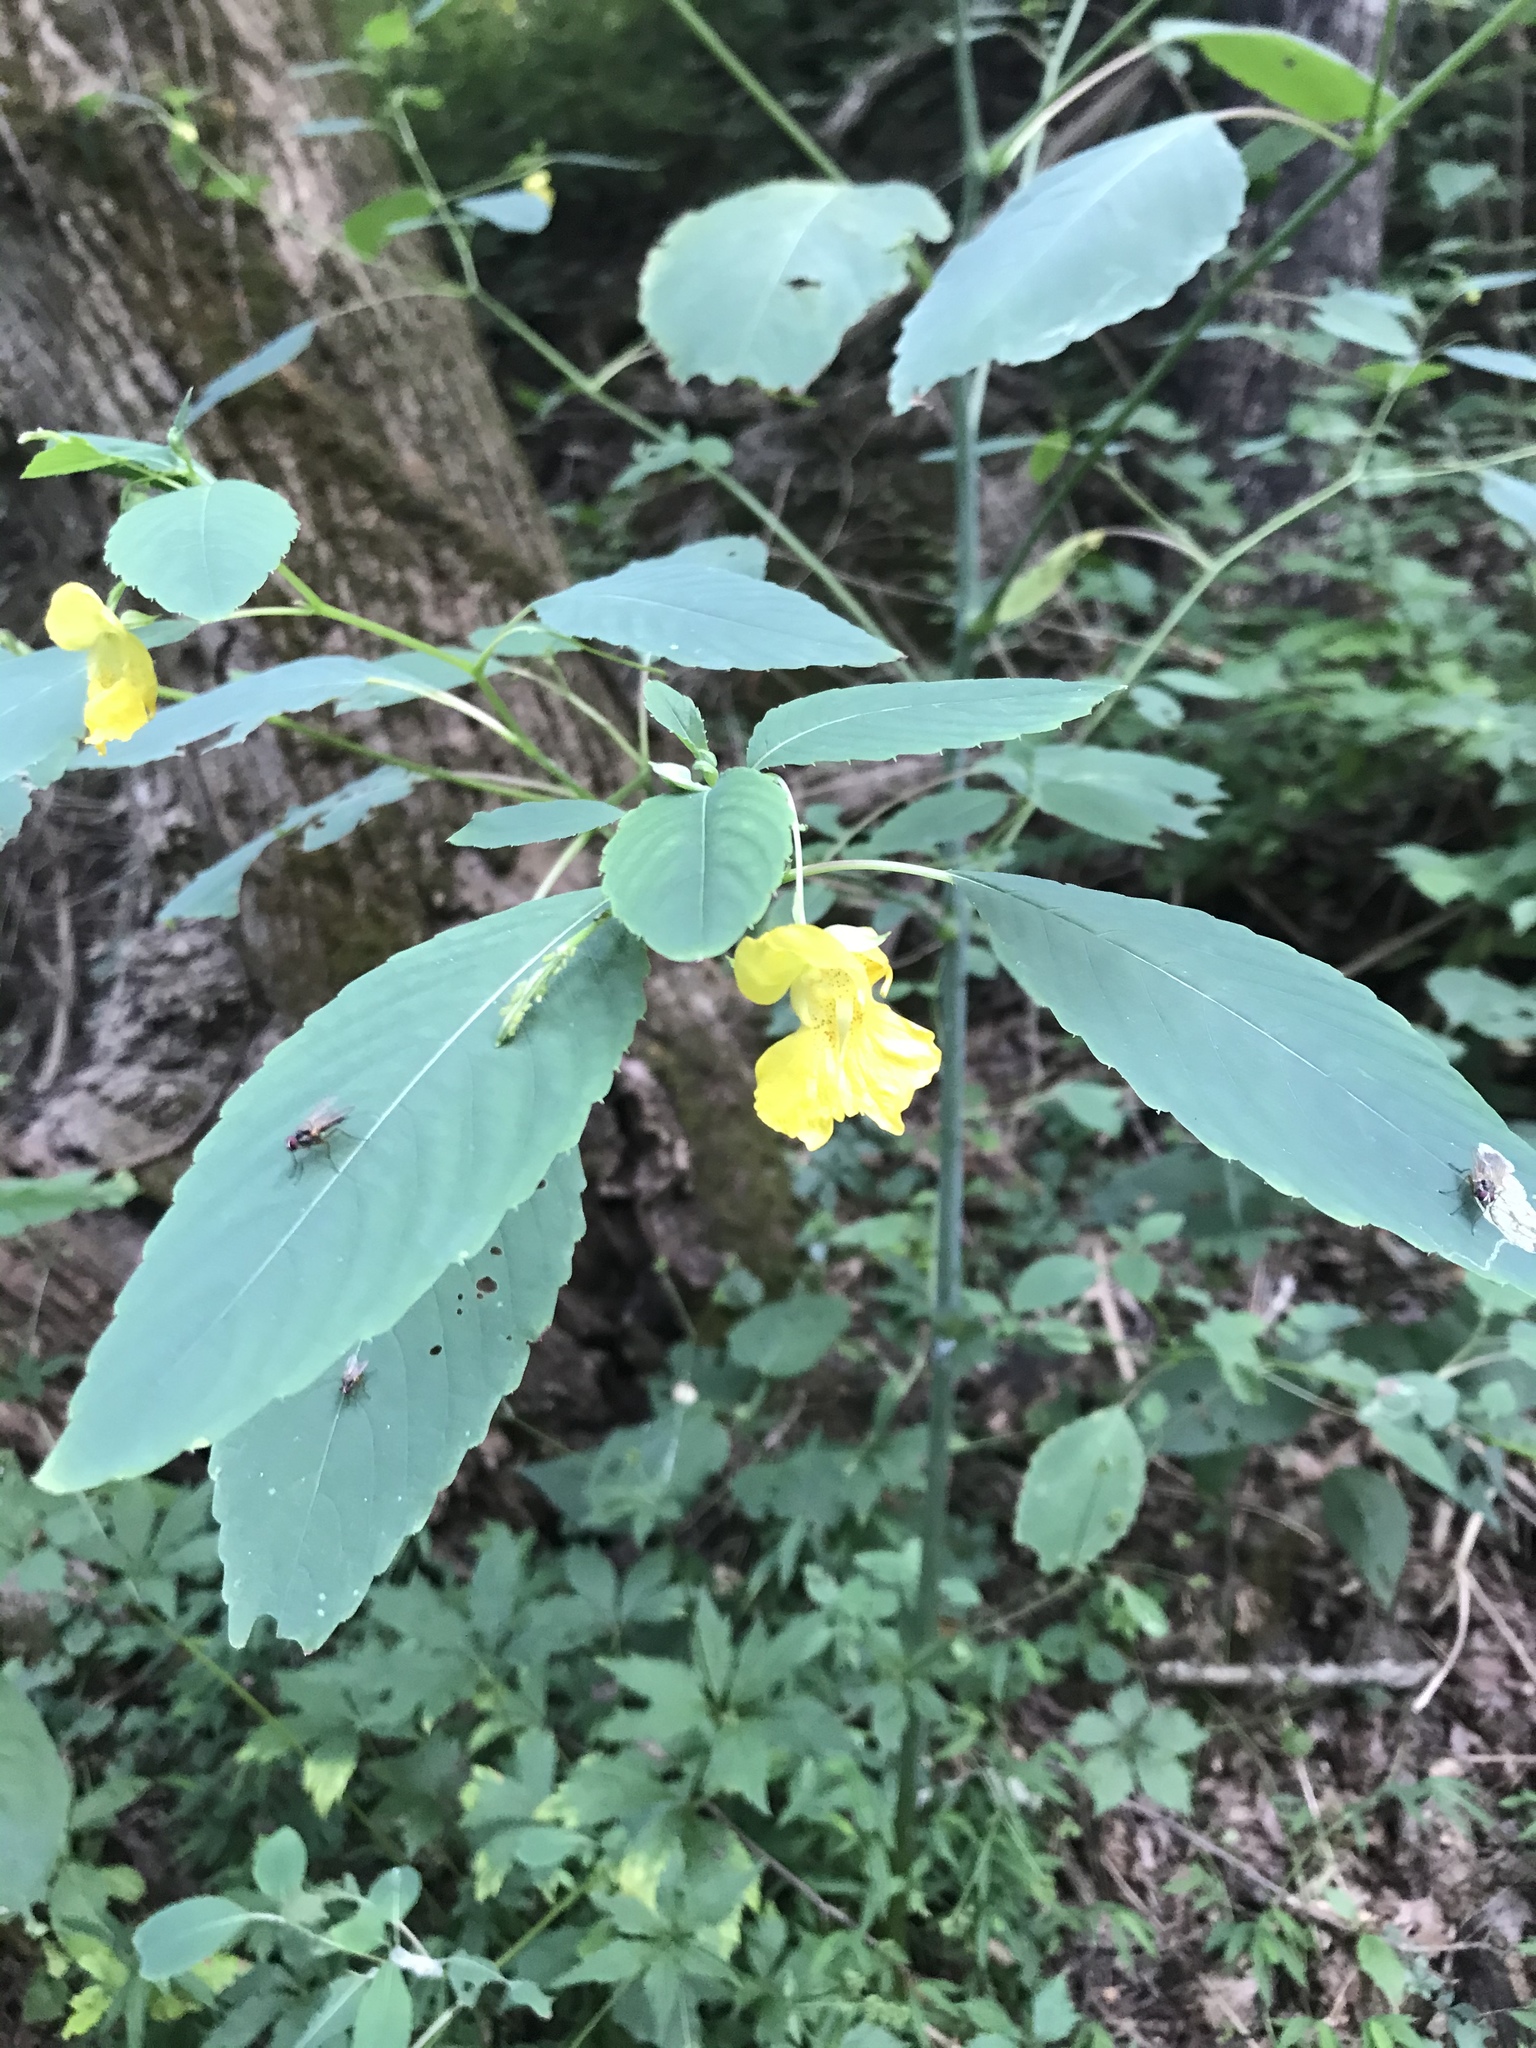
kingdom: Plantae
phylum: Tracheophyta
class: Magnoliopsida
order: Ericales
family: Balsaminaceae
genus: Impatiens
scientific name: Impatiens pallida
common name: Pale snapweed
